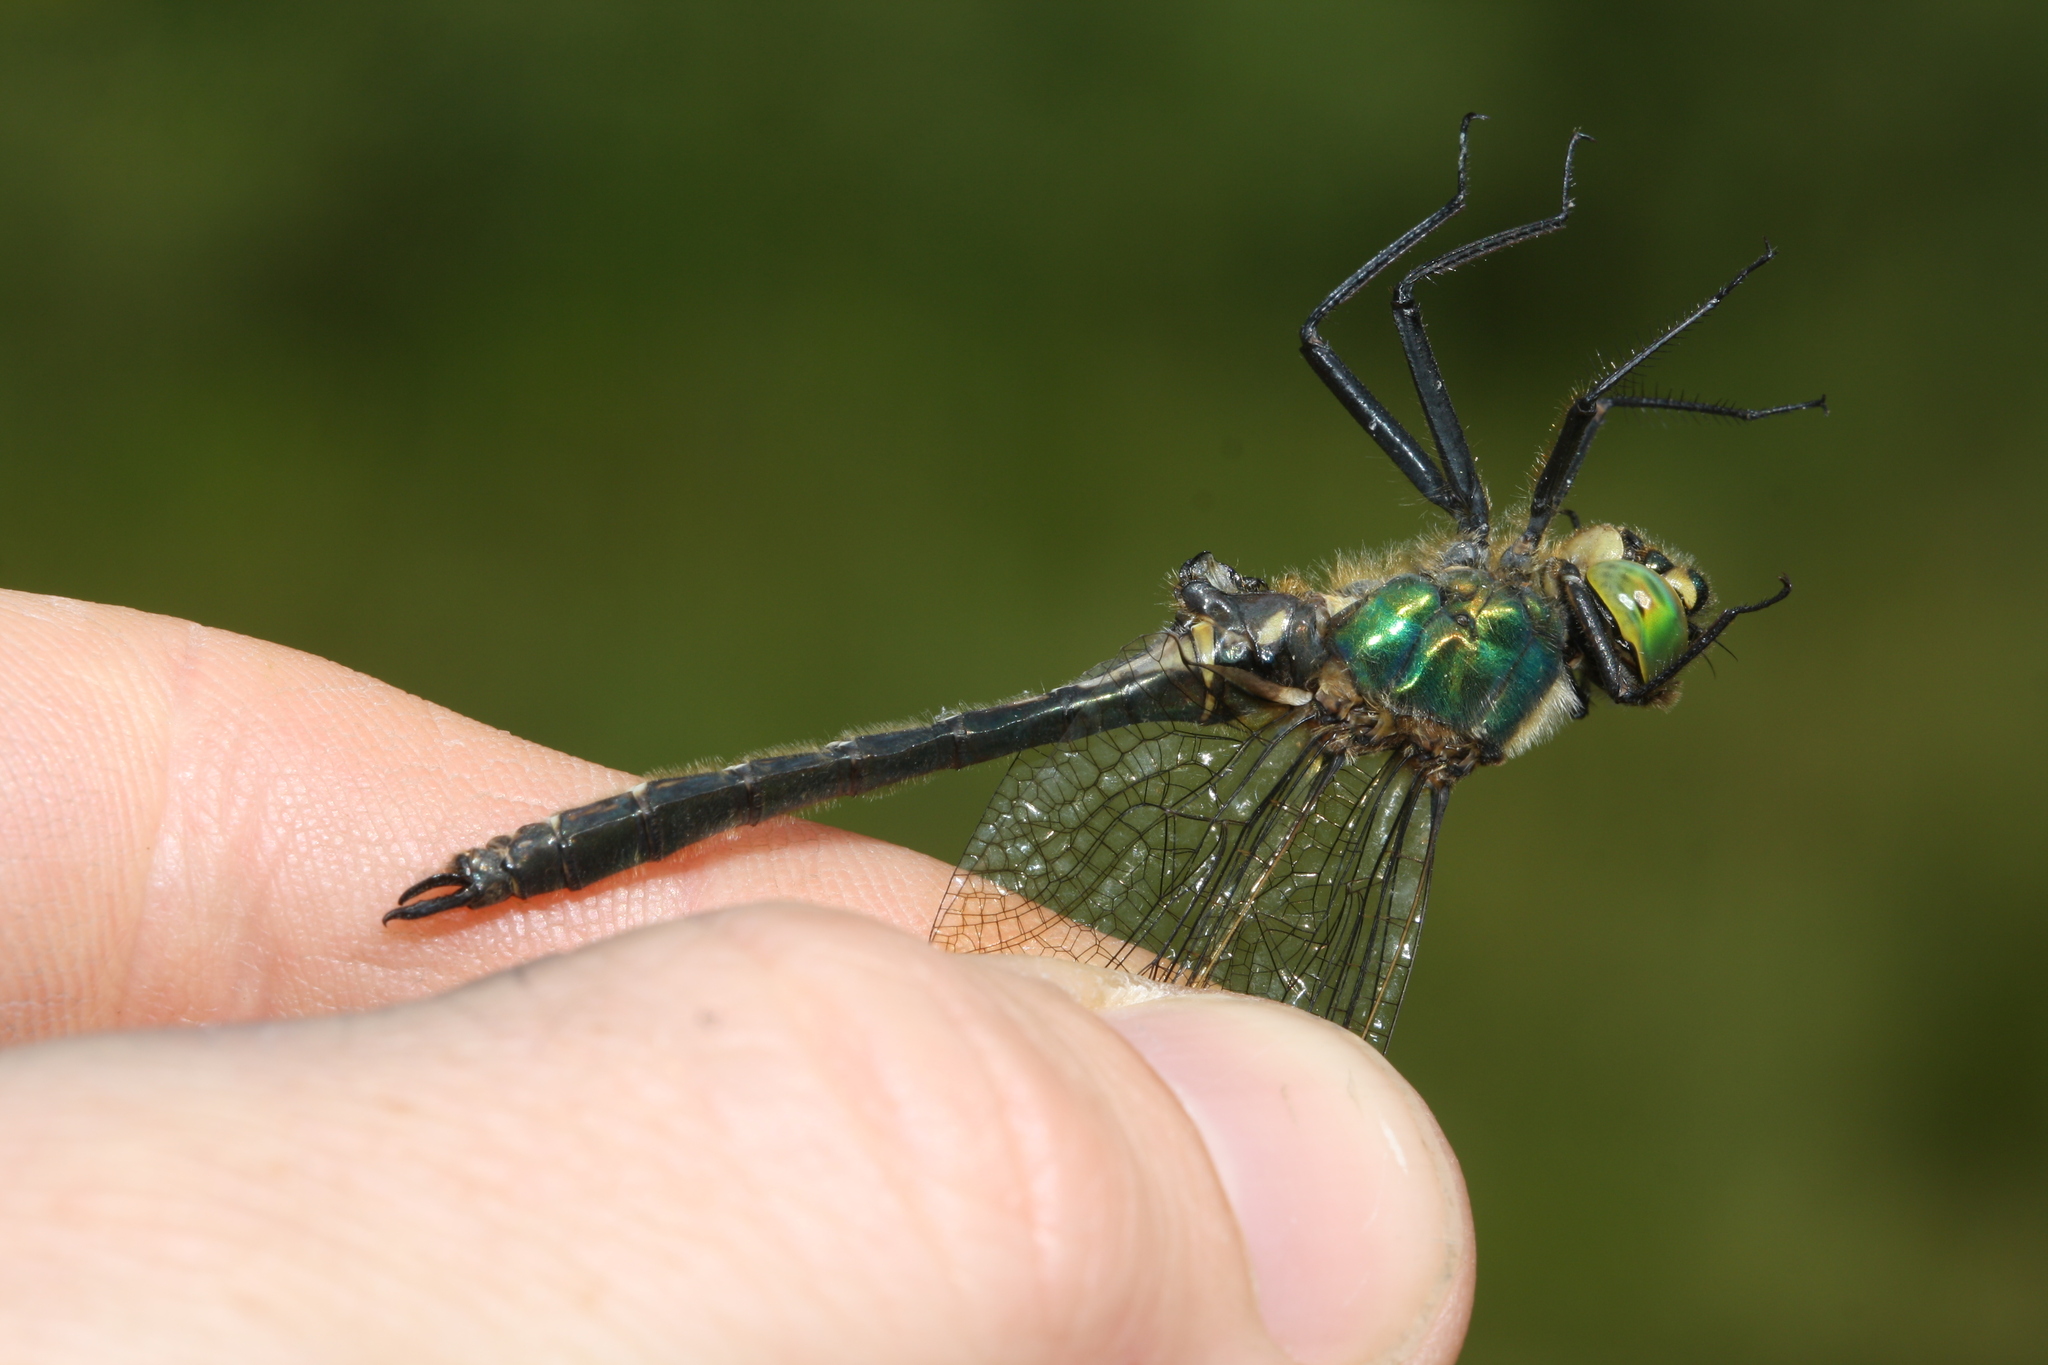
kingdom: Animalia
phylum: Arthropoda
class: Insecta
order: Odonata
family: Corduliidae
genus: Somatochlora
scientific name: Somatochlora metallica
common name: Brilliant emerald
